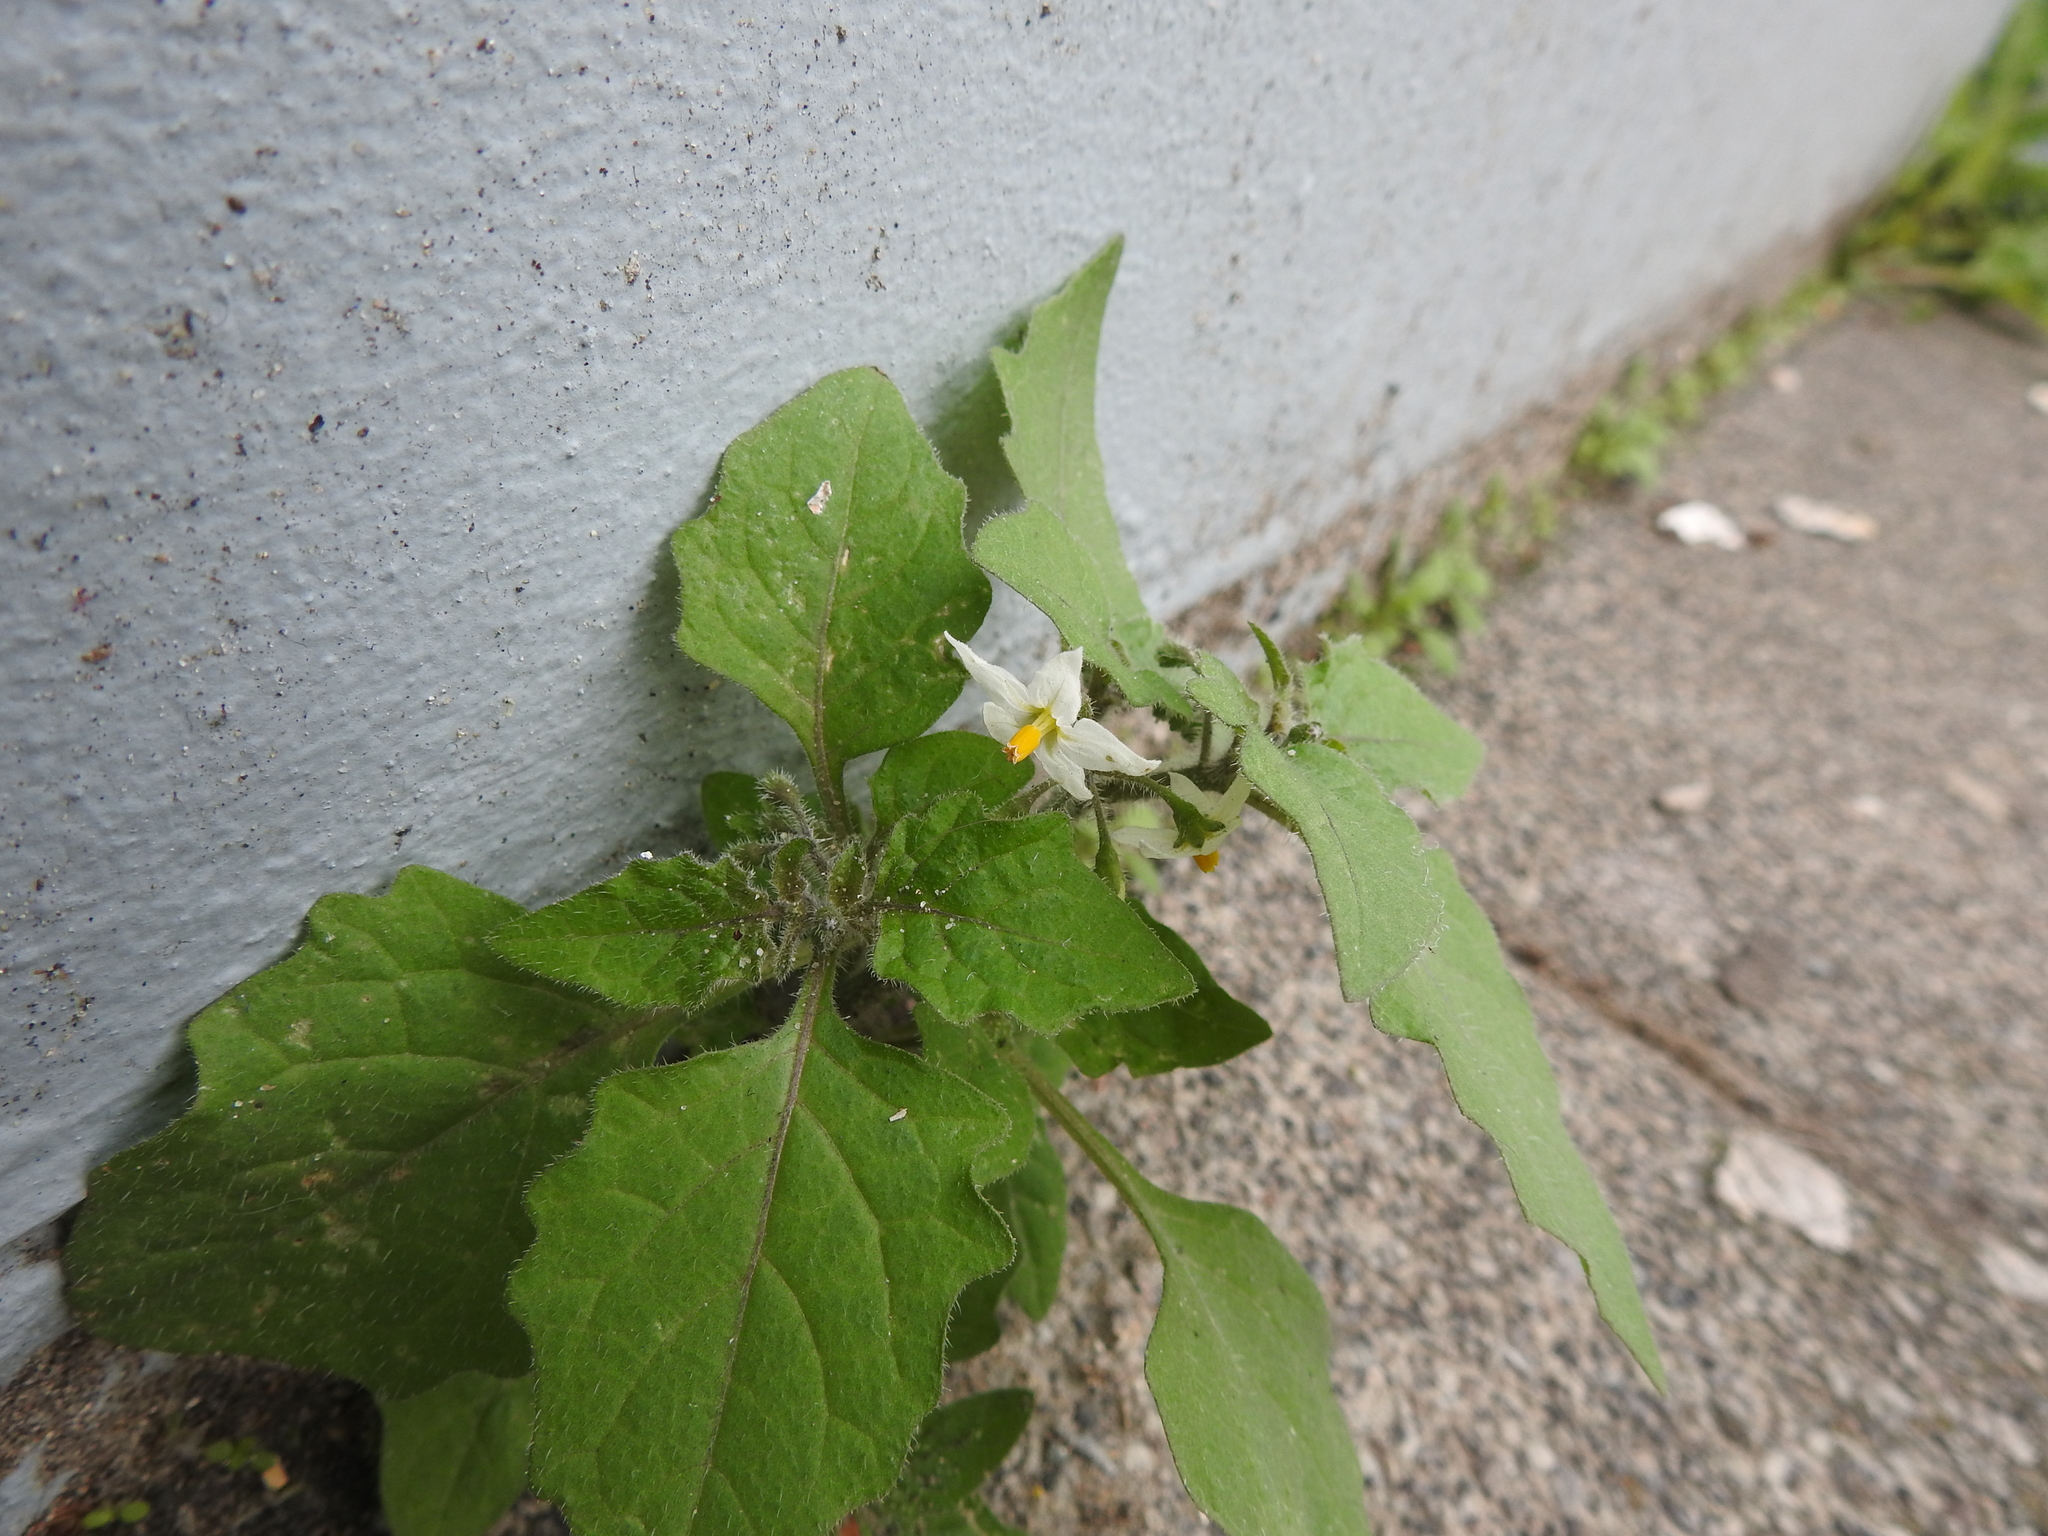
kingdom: Plantae
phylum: Tracheophyta
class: Magnoliopsida
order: Solanales
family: Solanaceae
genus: Solanum
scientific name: Solanum nigrum
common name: Black nightshade
